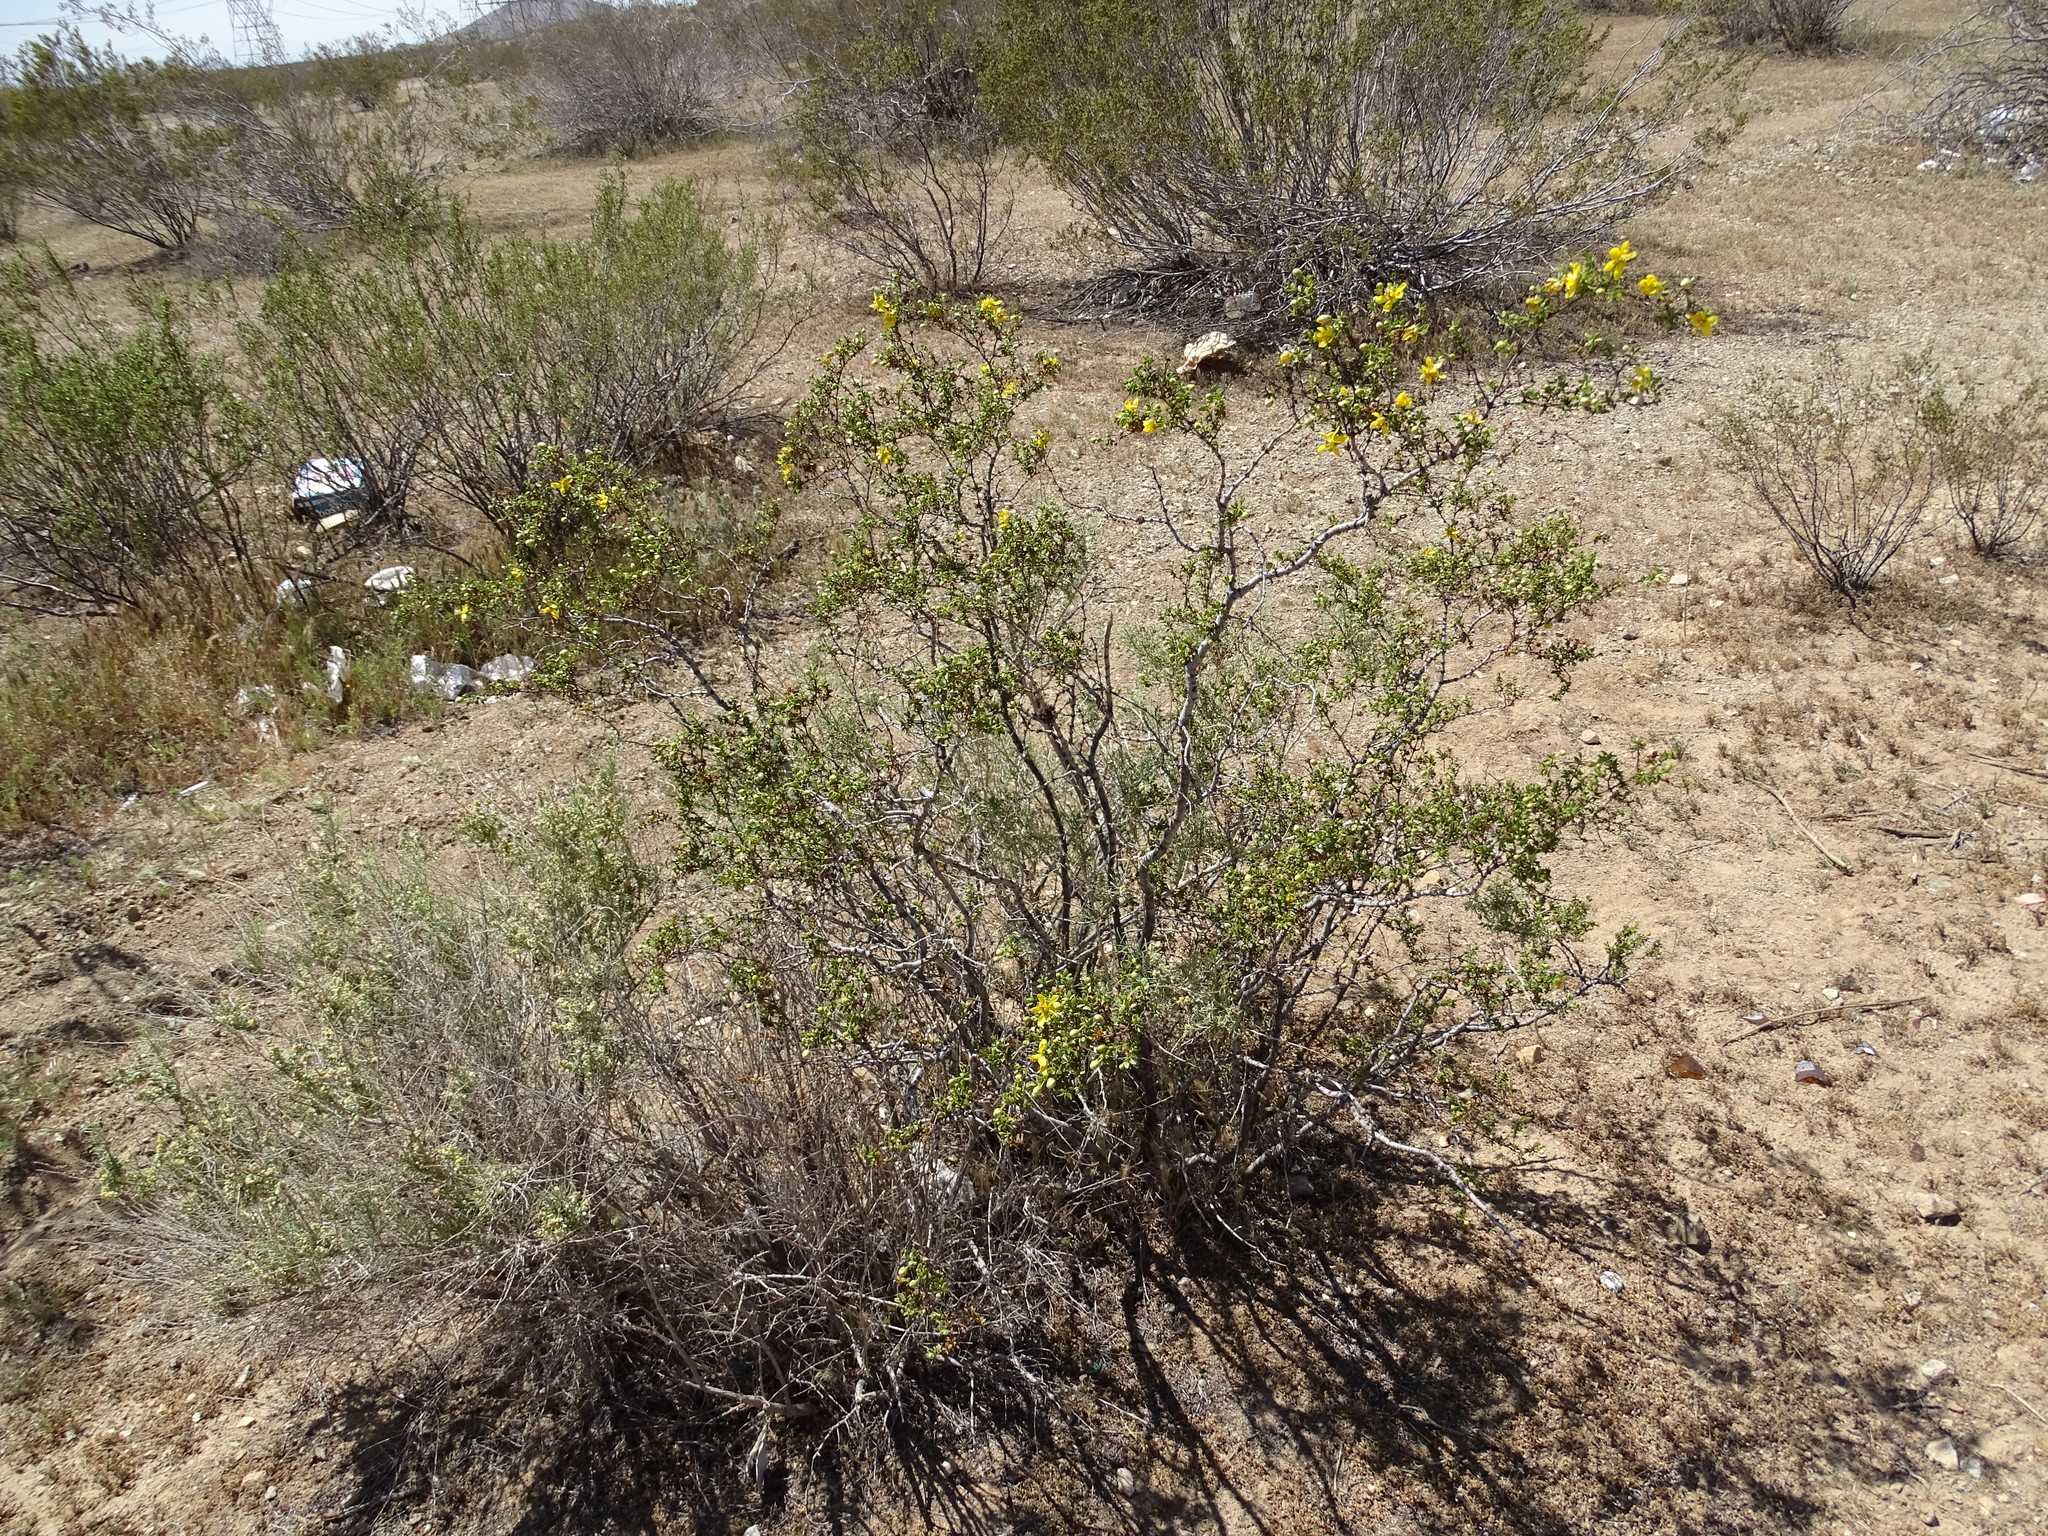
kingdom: Plantae
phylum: Tracheophyta
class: Magnoliopsida
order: Zygophyllales
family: Zygophyllaceae
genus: Larrea
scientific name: Larrea tridentata
